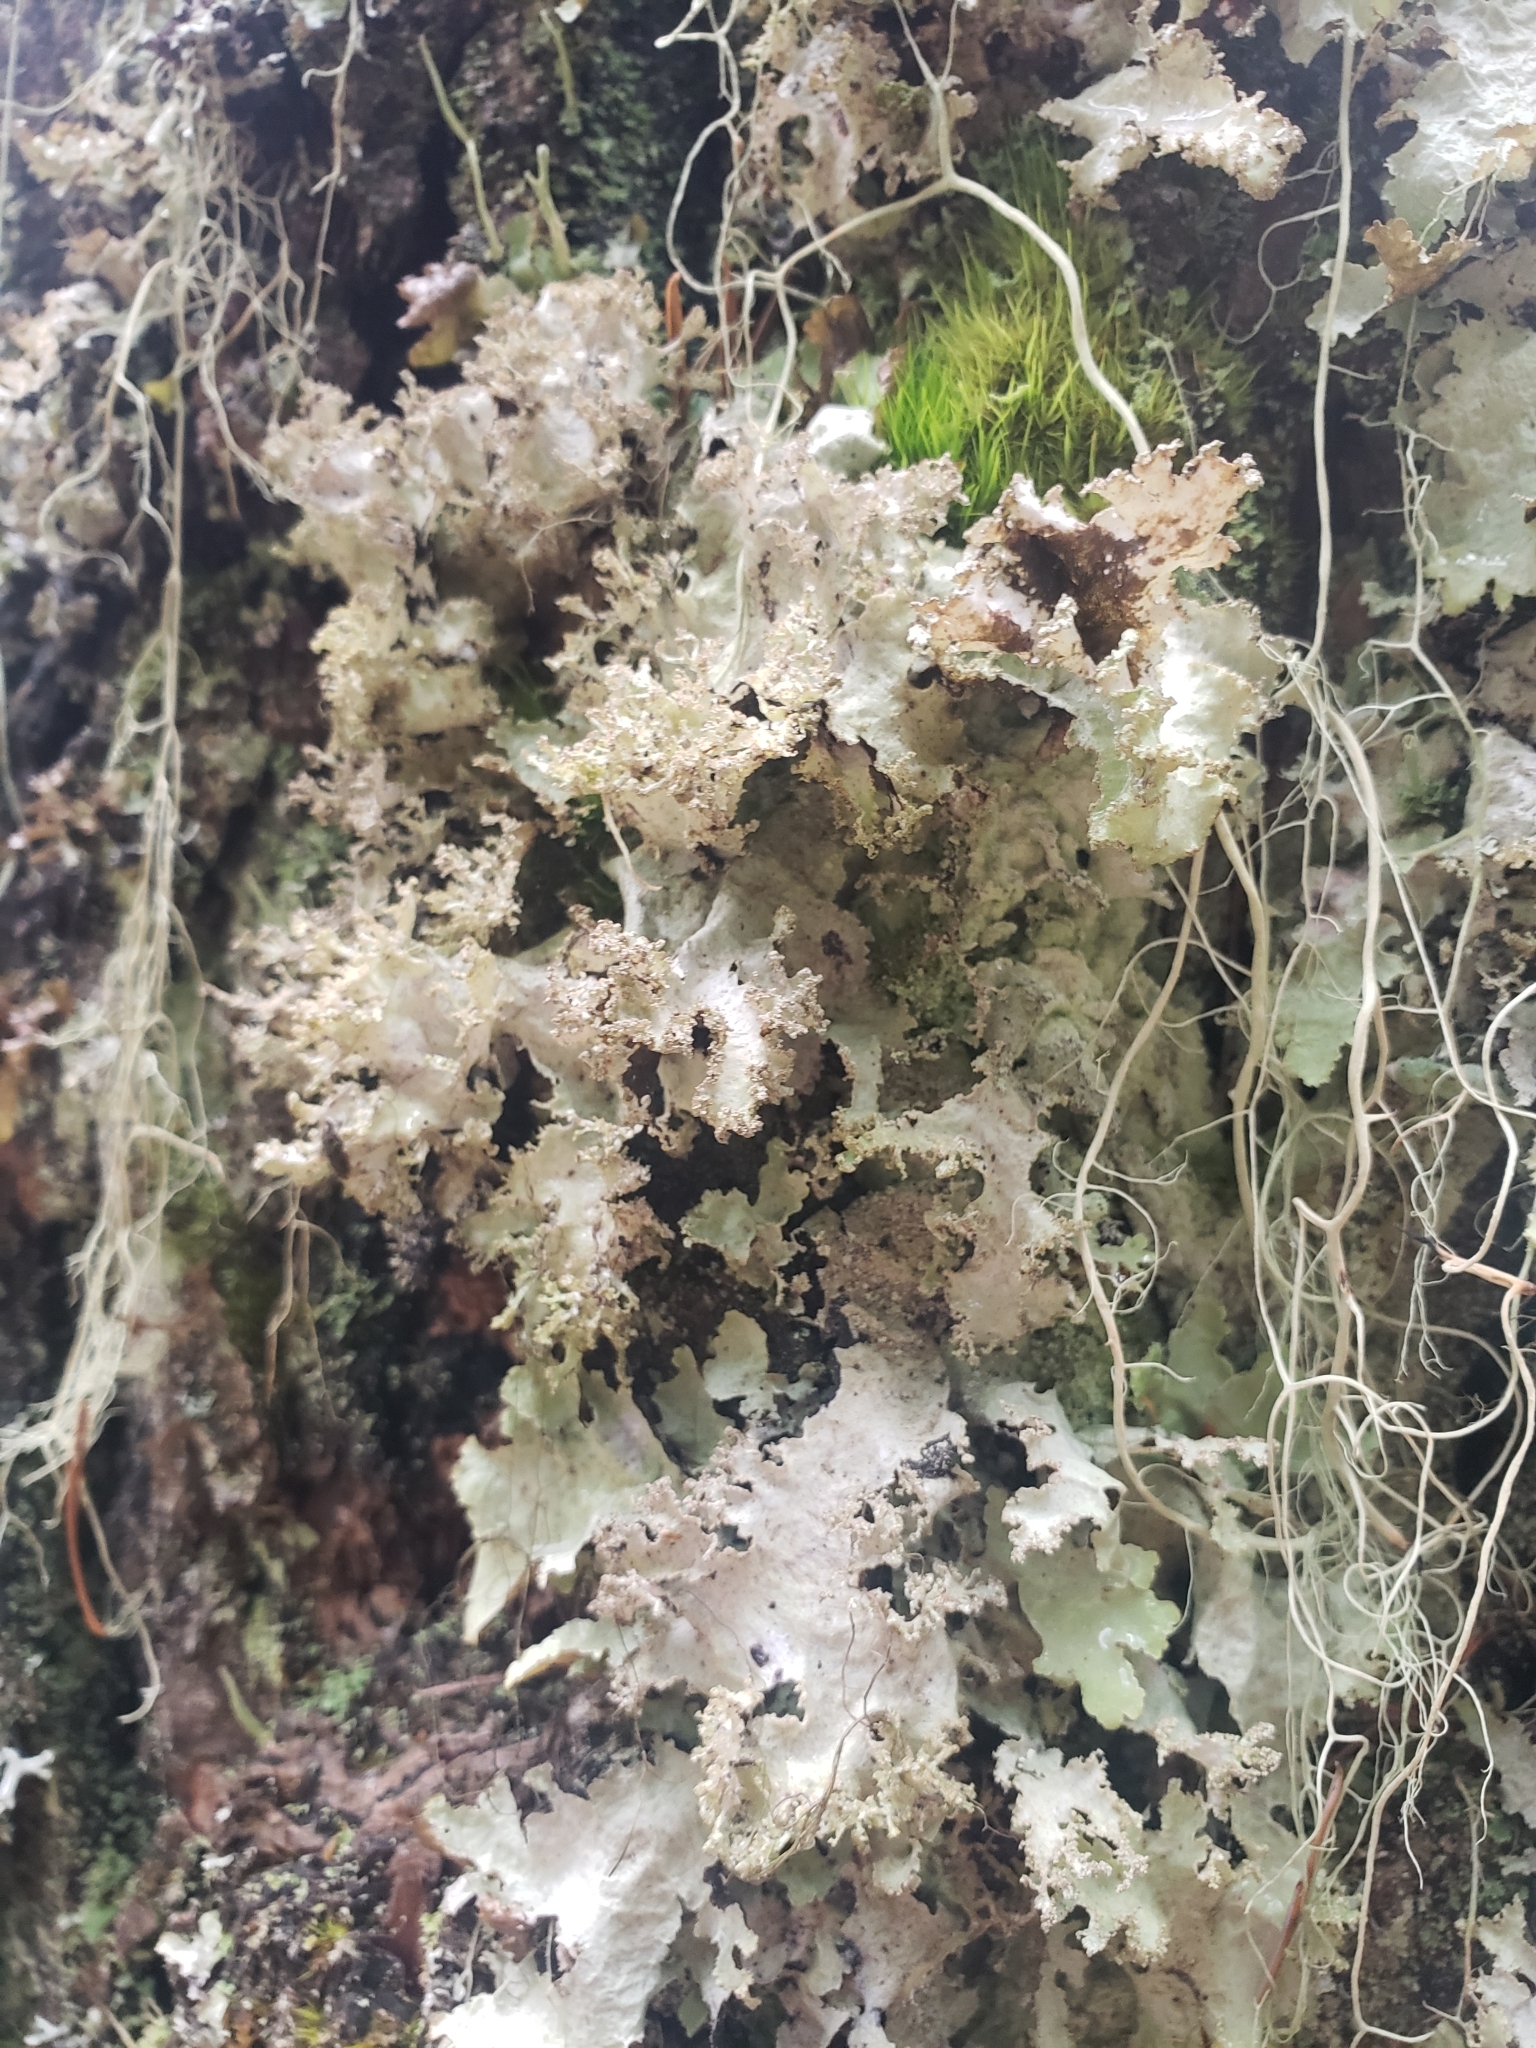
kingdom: Fungi
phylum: Ascomycota
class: Lecanoromycetes
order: Lecanorales
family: Parmeliaceae
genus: Platismatia
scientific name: Platismatia glauca
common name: Varied rag lichen
